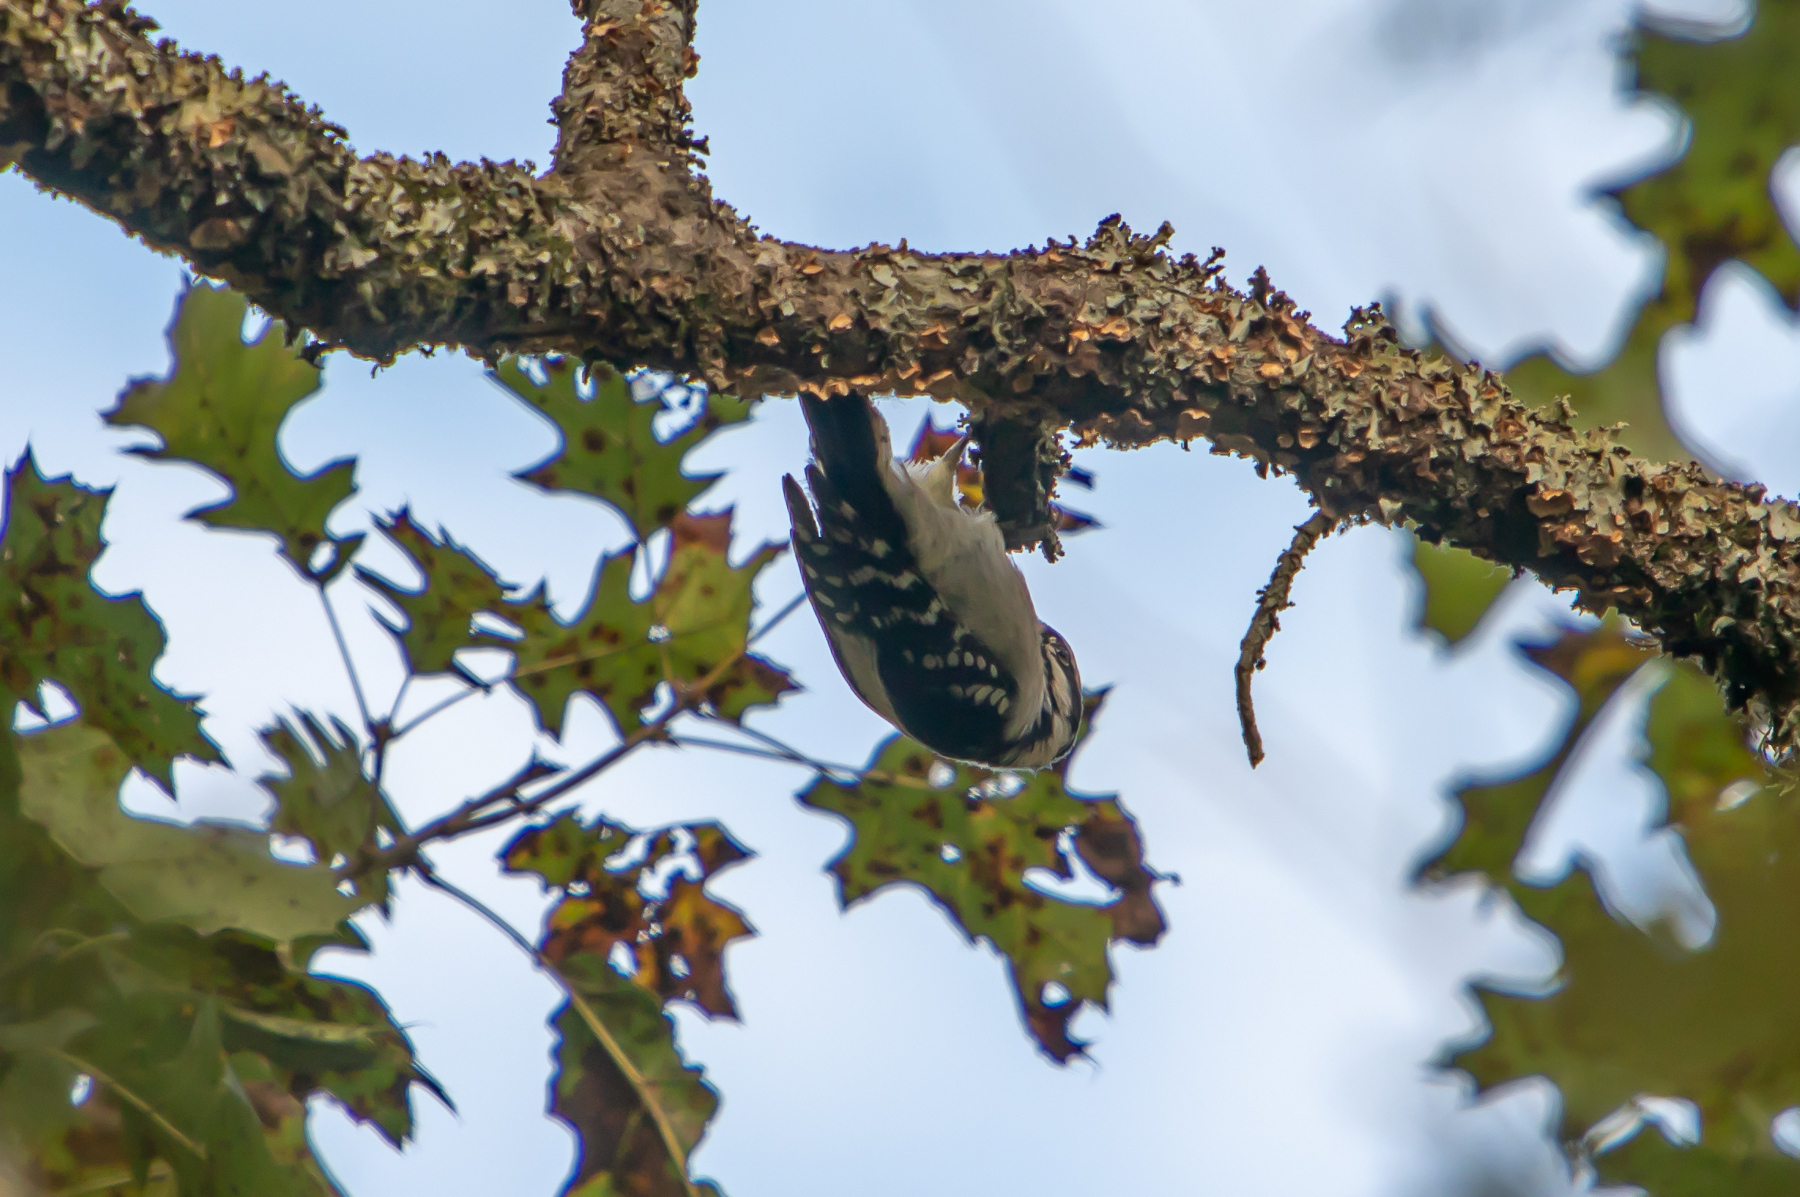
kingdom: Animalia
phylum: Chordata
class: Aves
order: Piciformes
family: Picidae
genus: Dryobates
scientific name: Dryobates pubescens
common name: Downy woodpecker
